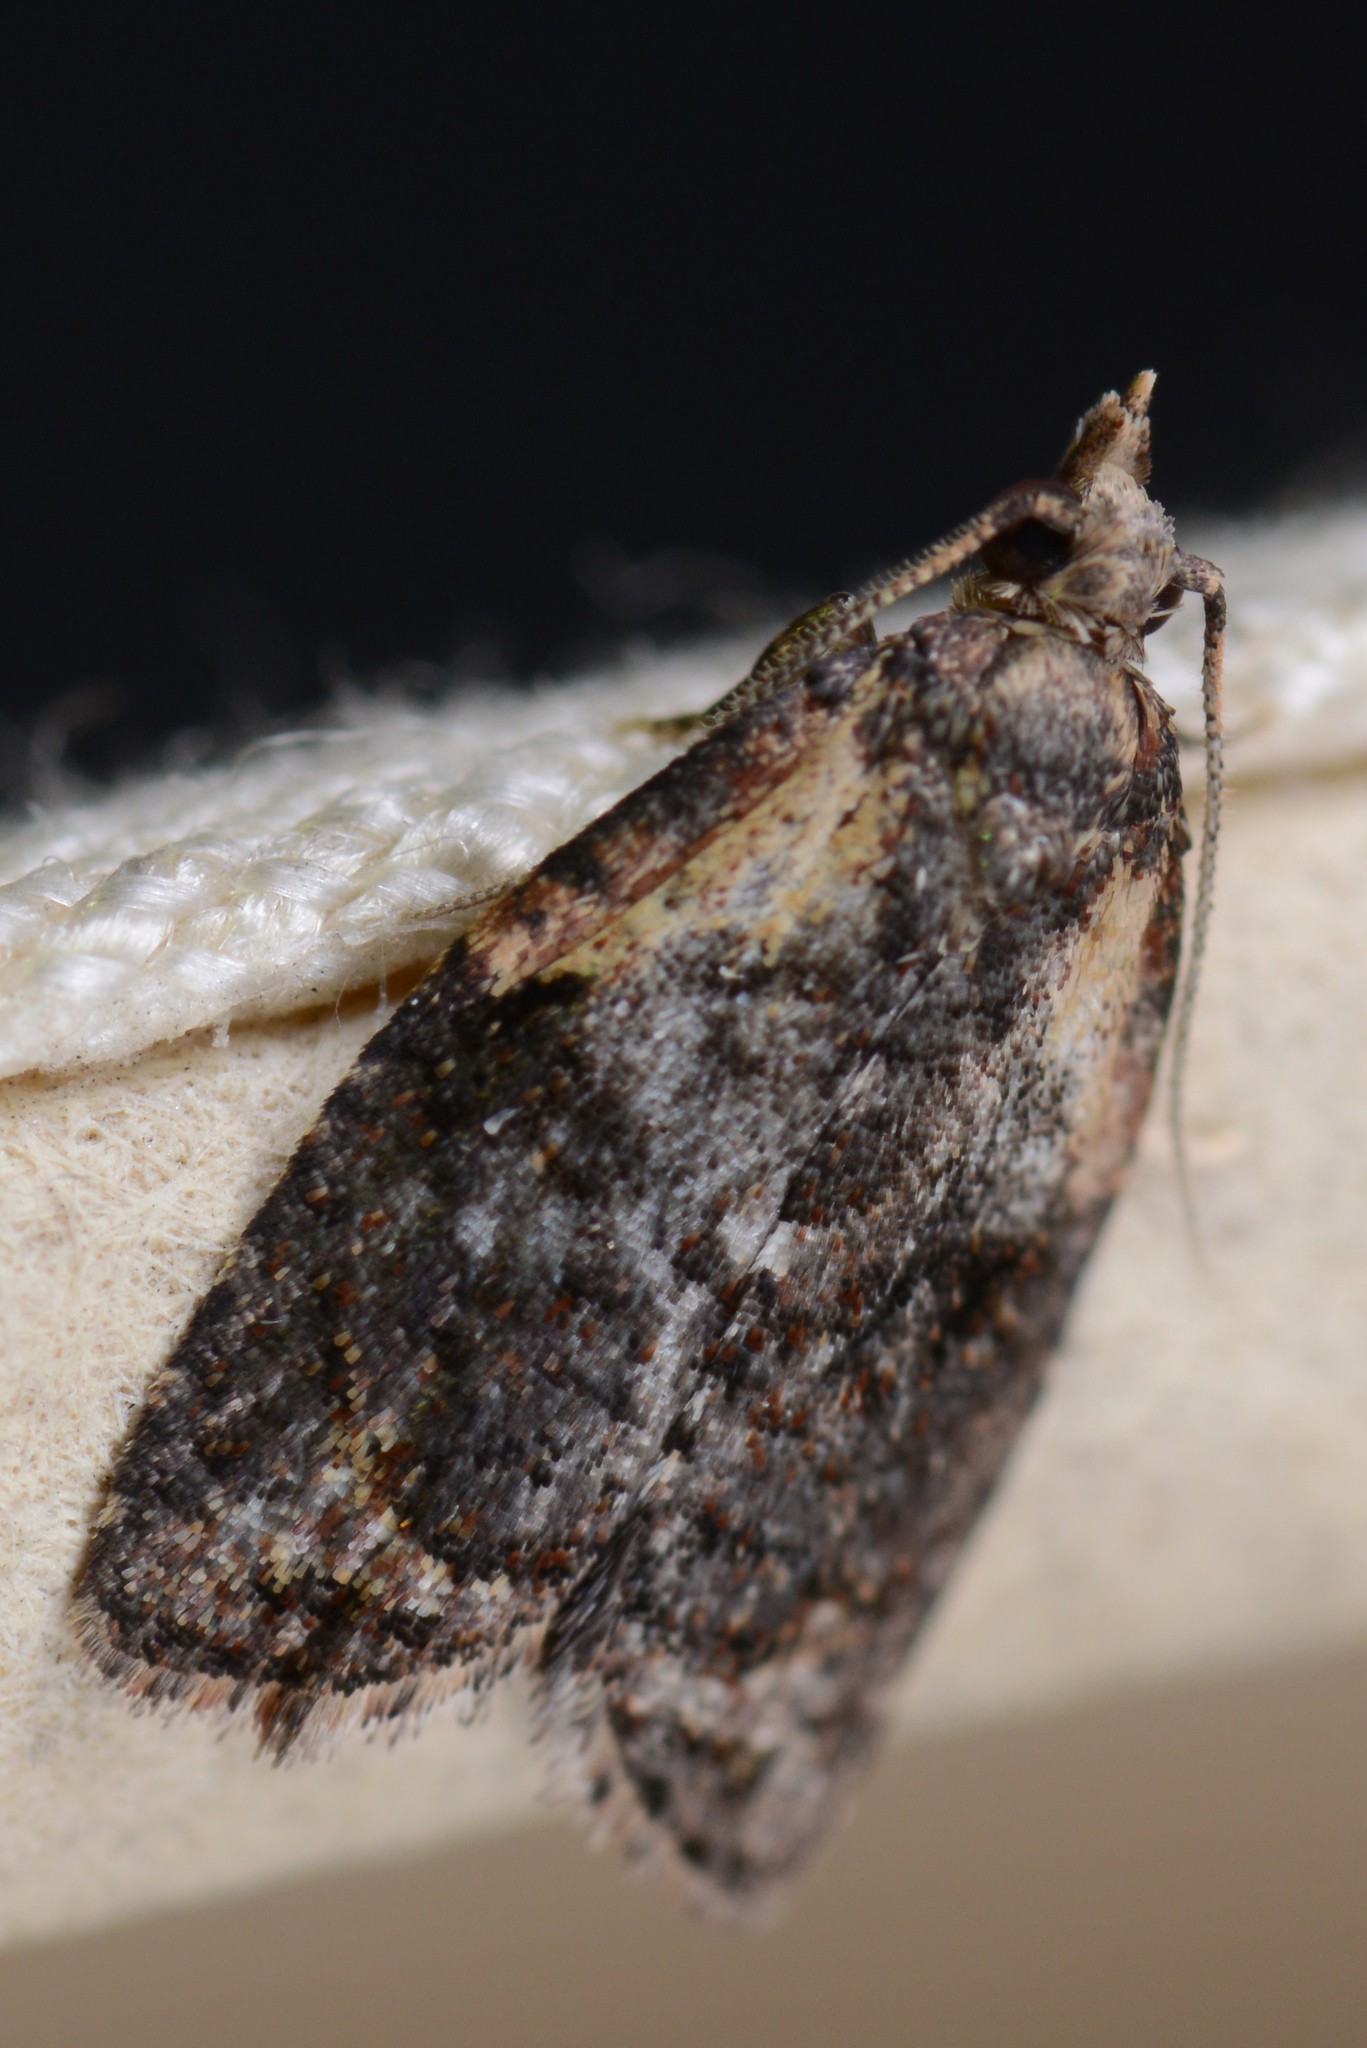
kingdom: Animalia
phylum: Arthropoda
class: Insecta
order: Lepidoptera
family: Tortricidae
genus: Capua
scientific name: Capua intractana
